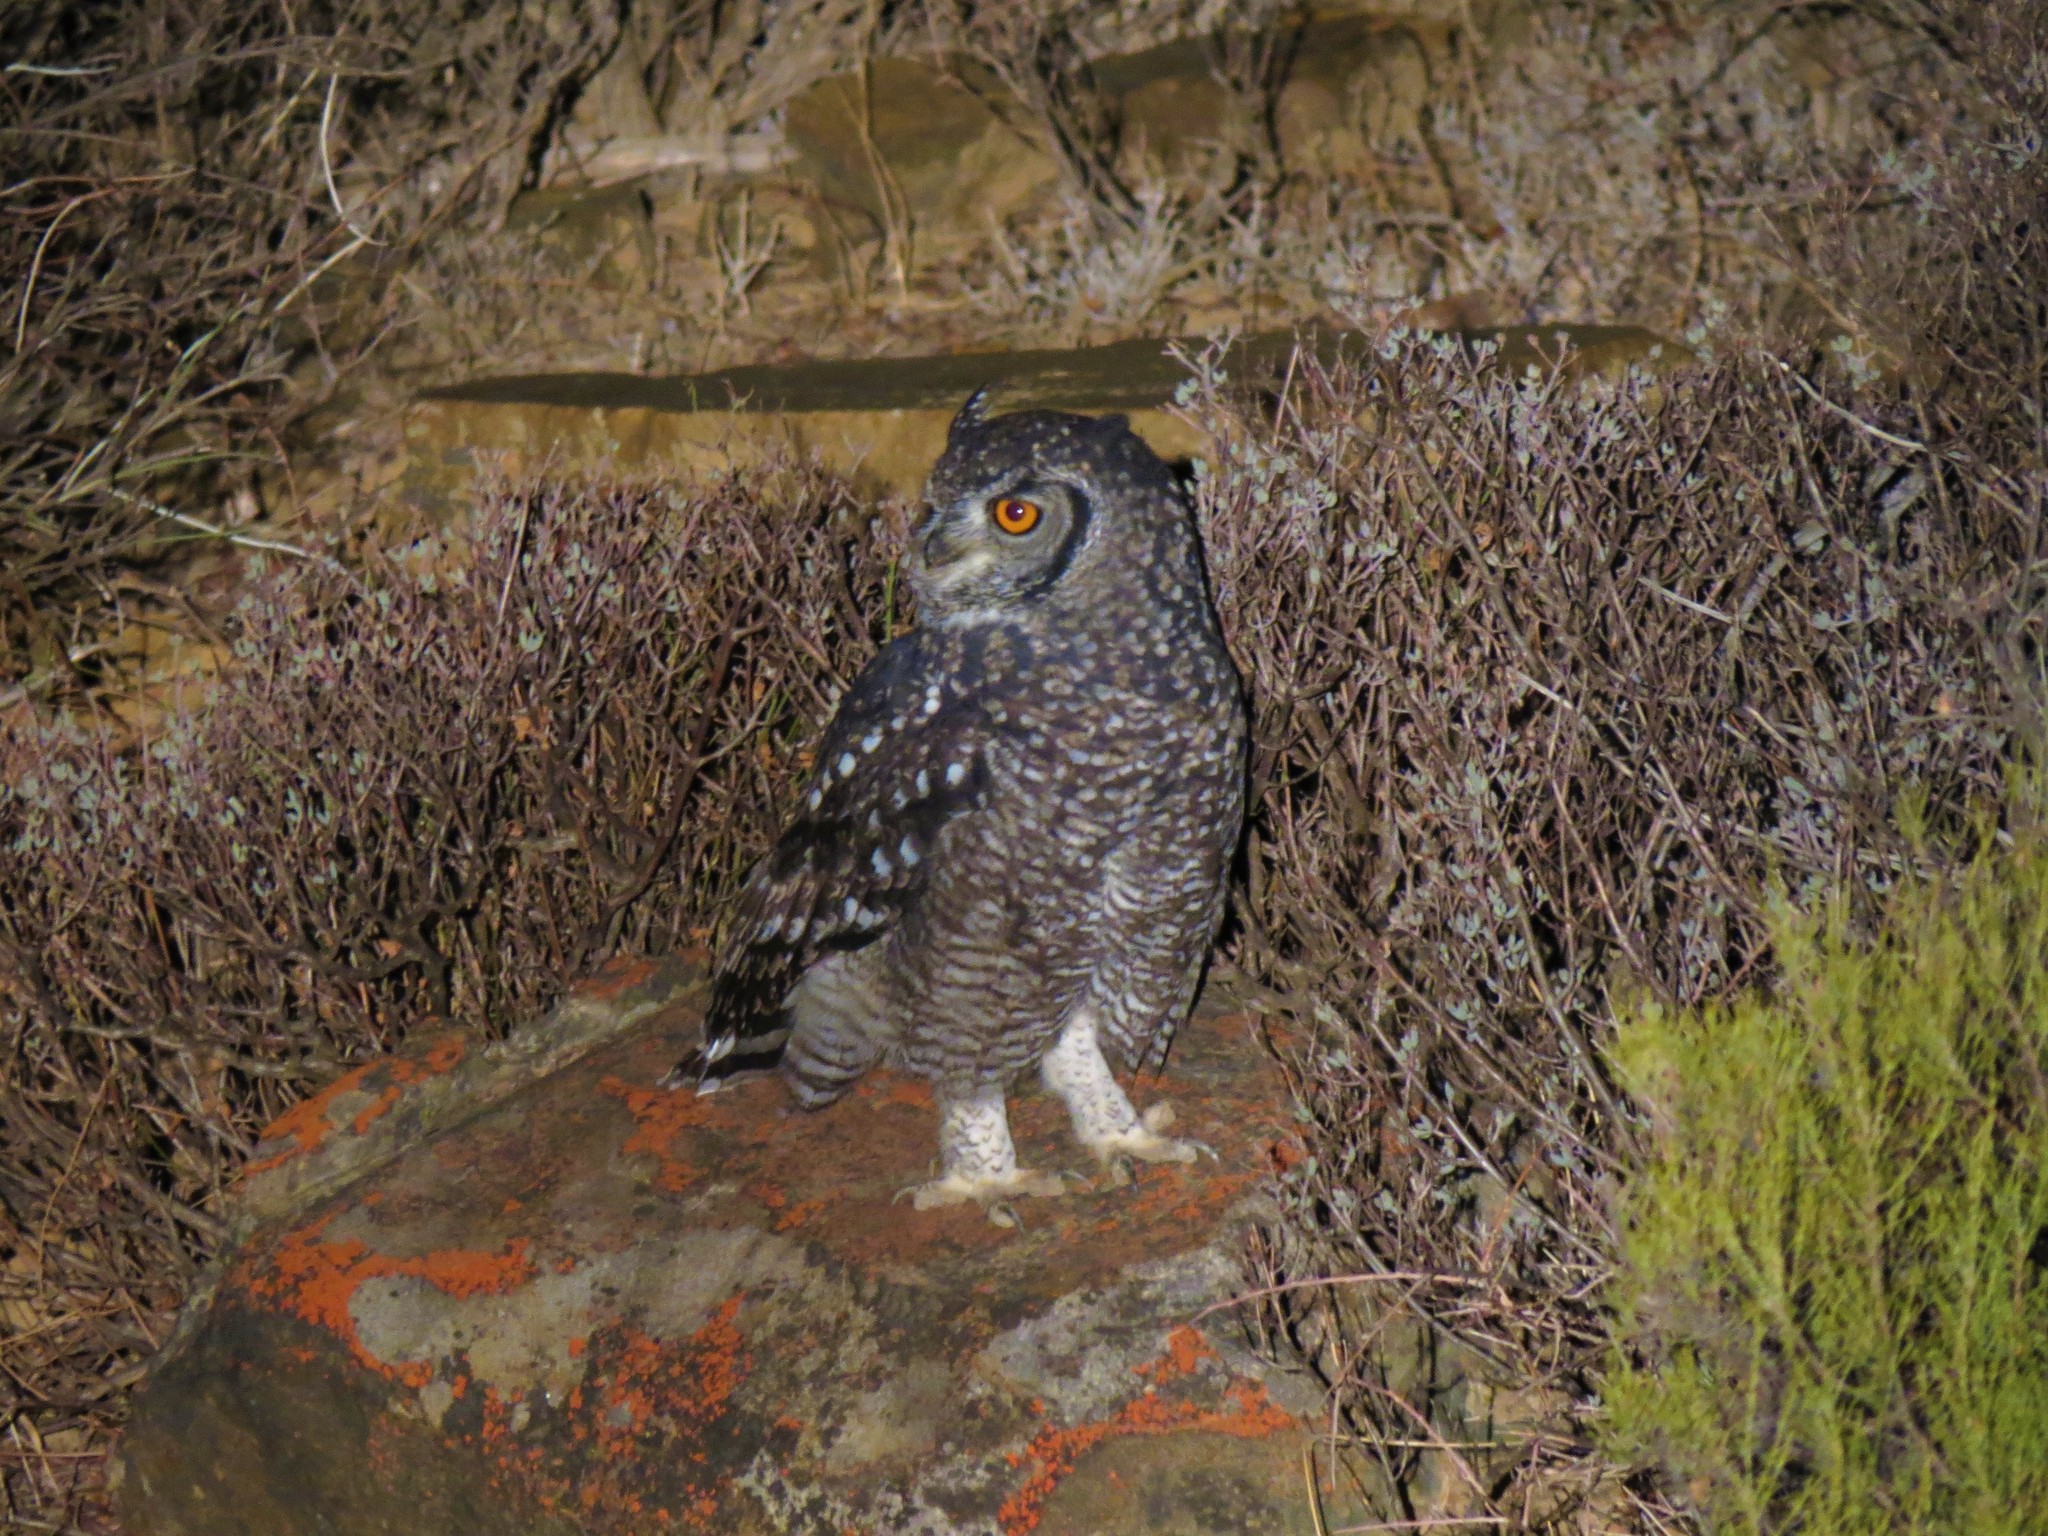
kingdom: Animalia
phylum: Chordata
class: Aves
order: Strigiformes
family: Strigidae
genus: Bubo
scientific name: Bubo africanus
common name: Spotted eagle-owl
